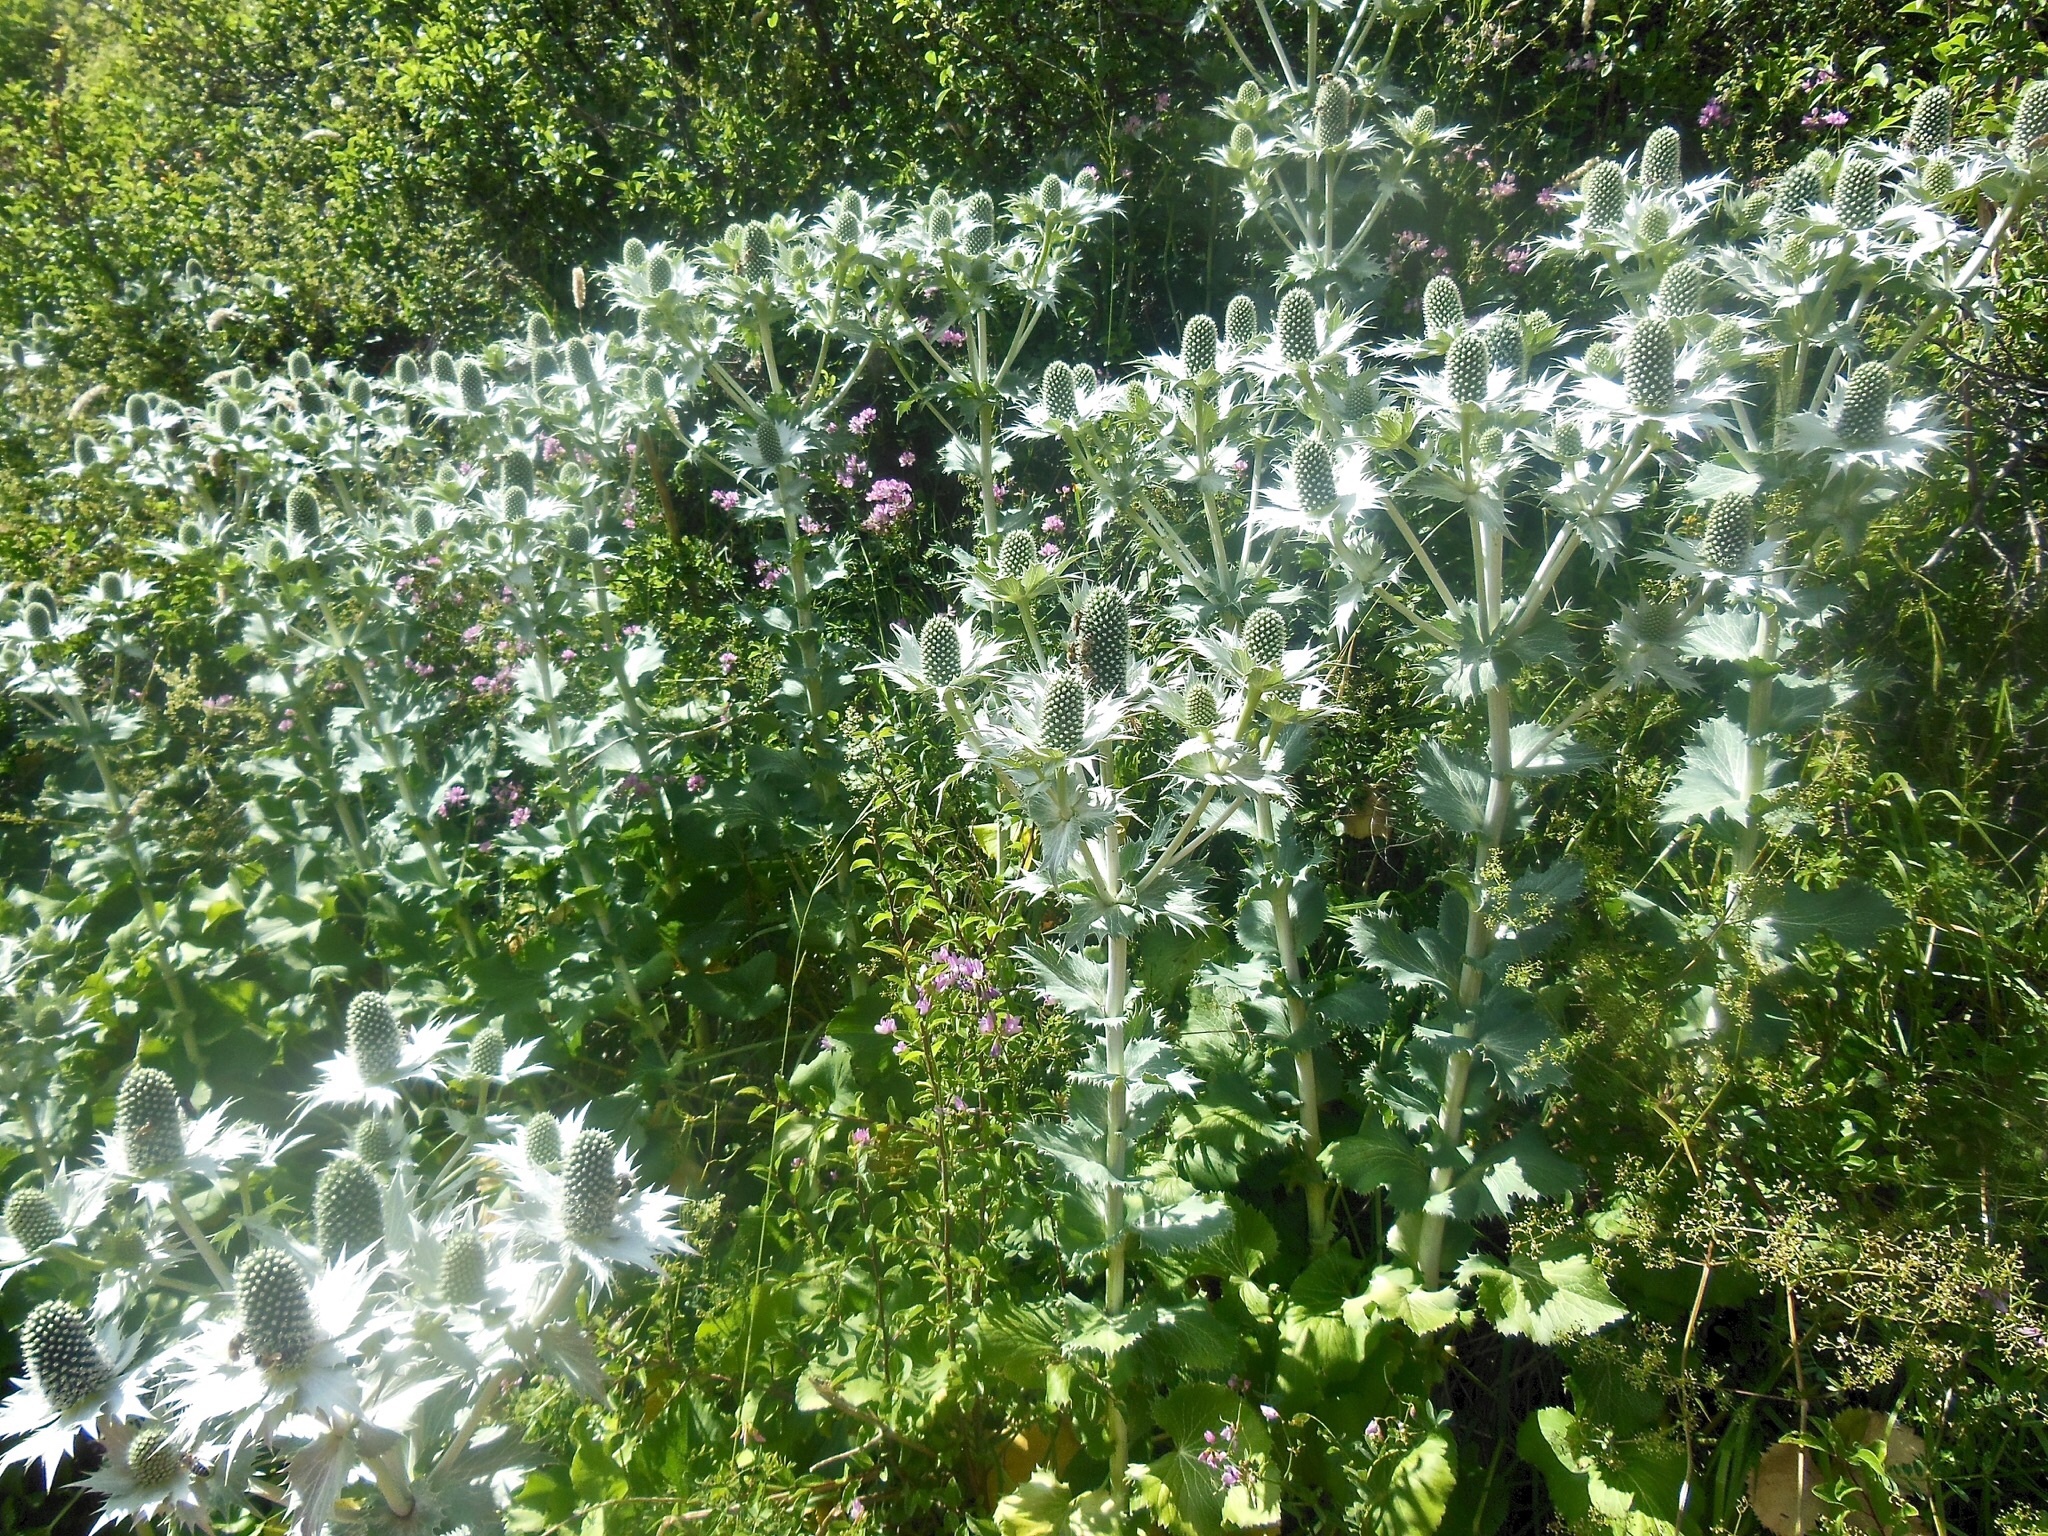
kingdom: Plantae
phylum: Tracheophyta
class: Magnoliopsida
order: Apiales
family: Apiaceae
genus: Eryngium
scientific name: Eryngium giganteum
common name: Tall eryngo
